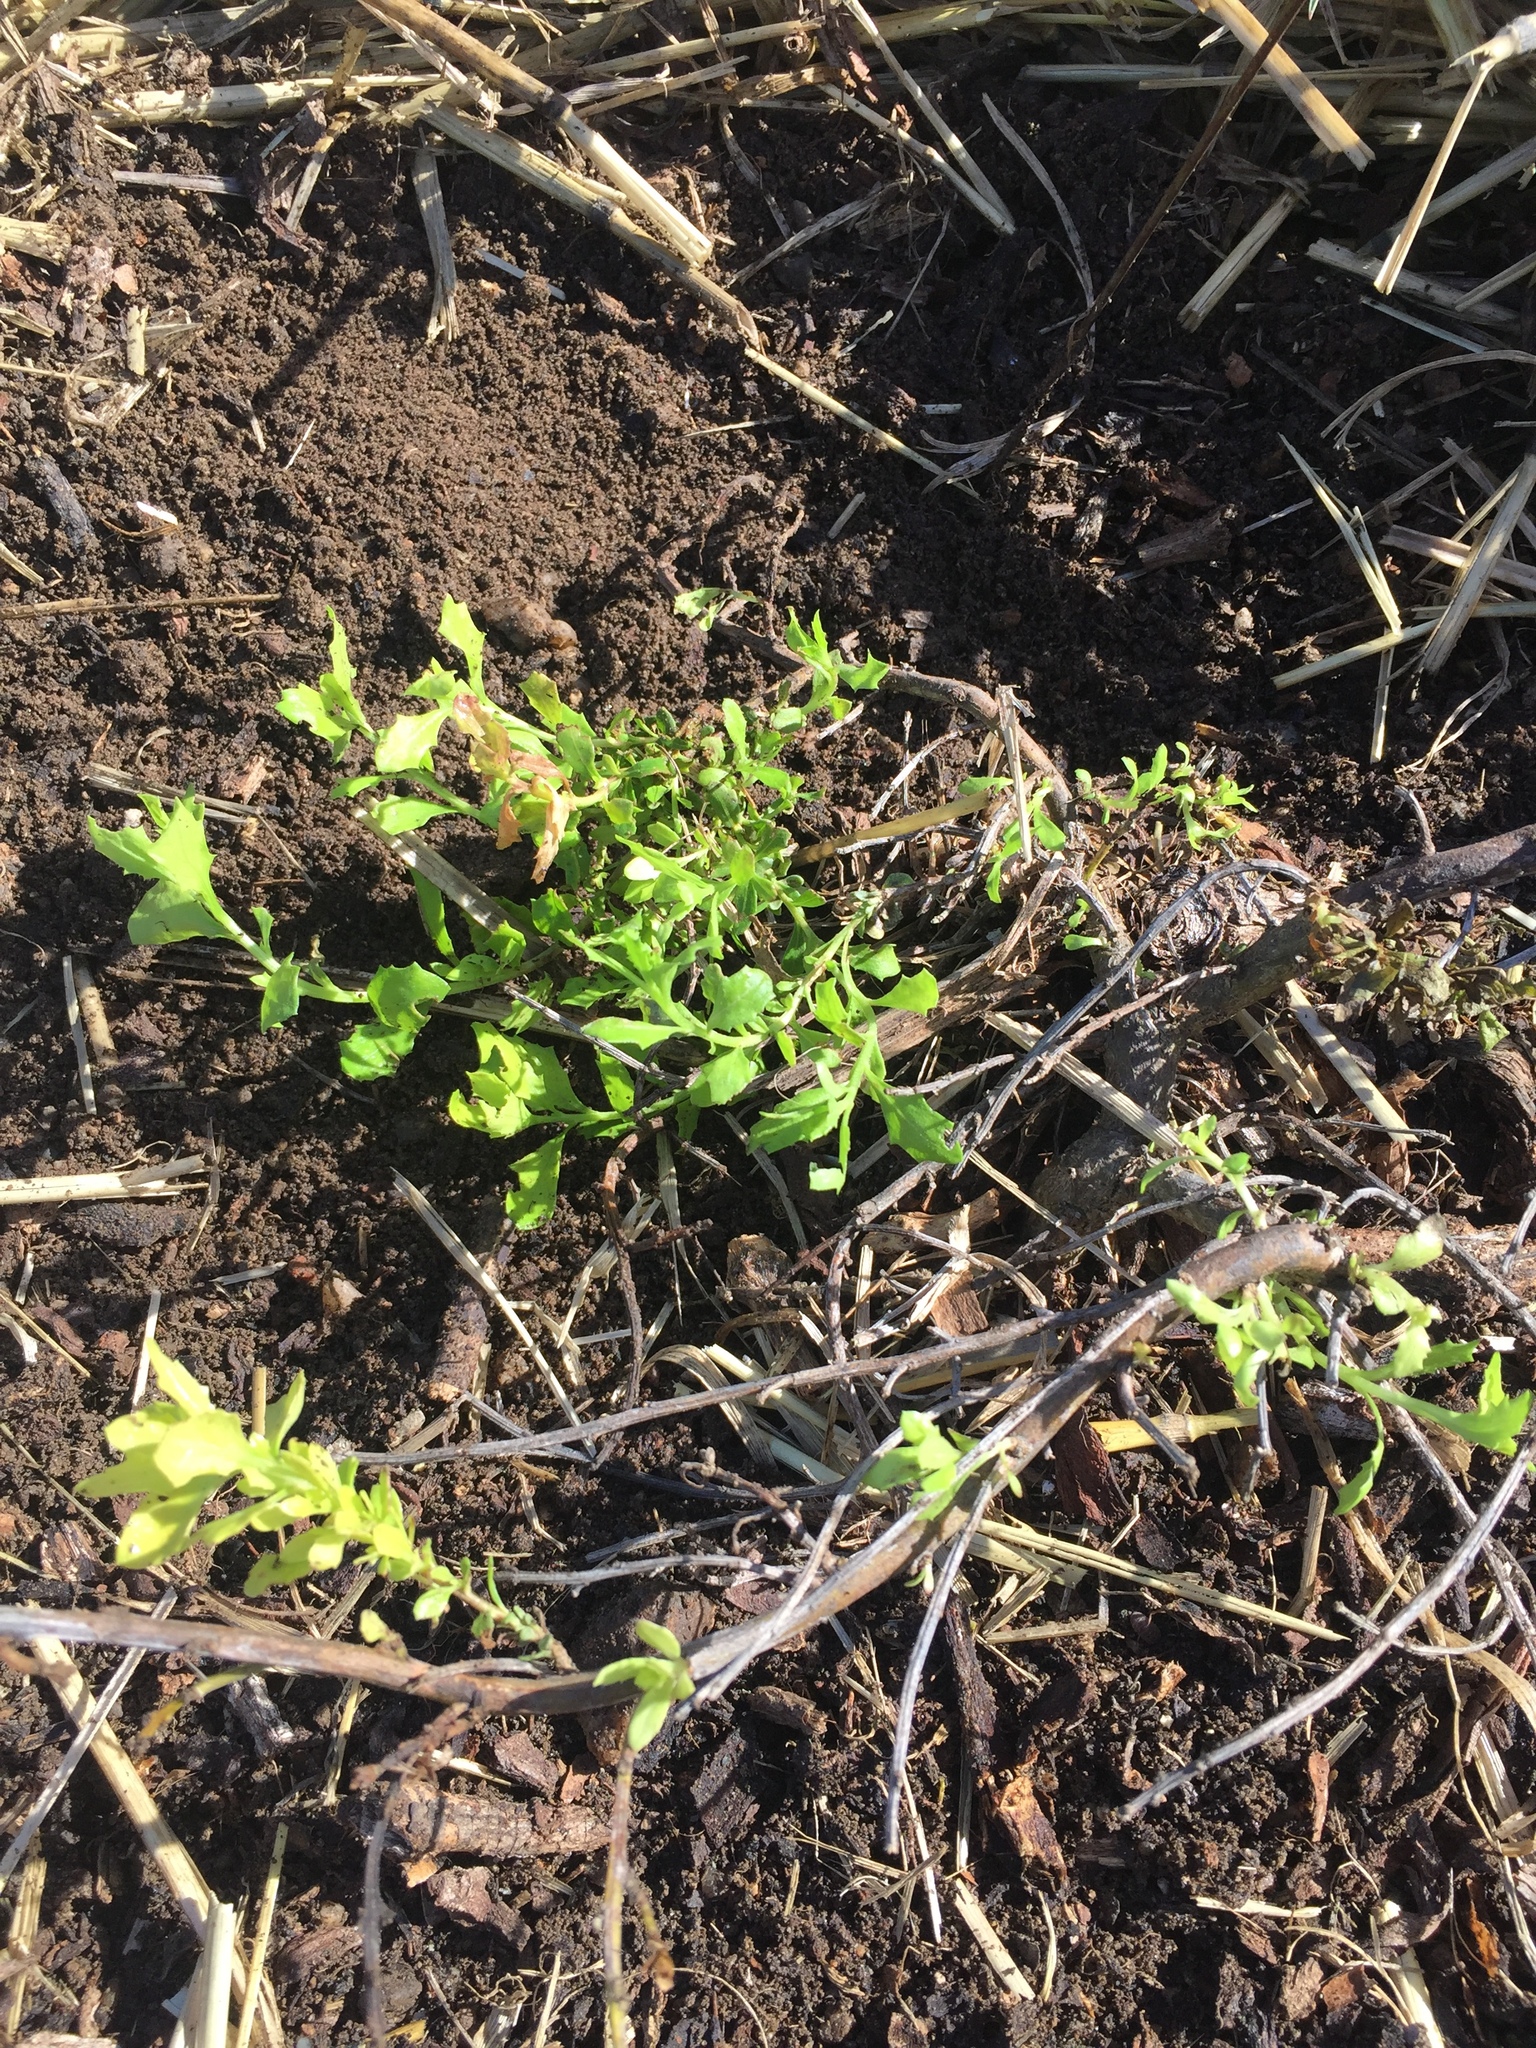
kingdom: Plantae
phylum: Tracheophyta
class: Magnoliopsida
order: Asterales
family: Asteraceae
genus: Baccharis
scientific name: Baccharis pilularis
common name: Coyotebrush
